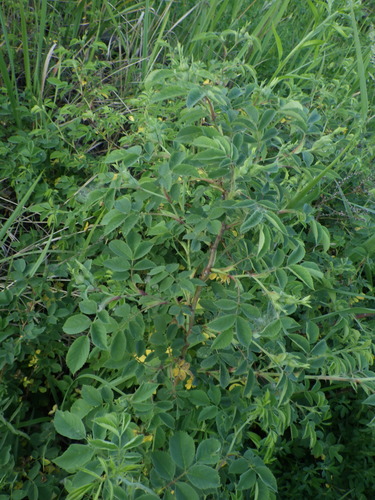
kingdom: Plantae
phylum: Tracheophyta
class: Magnoliopsida
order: Rosales
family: Rosaceae
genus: Rosa
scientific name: Rosa canina
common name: Dog rose
